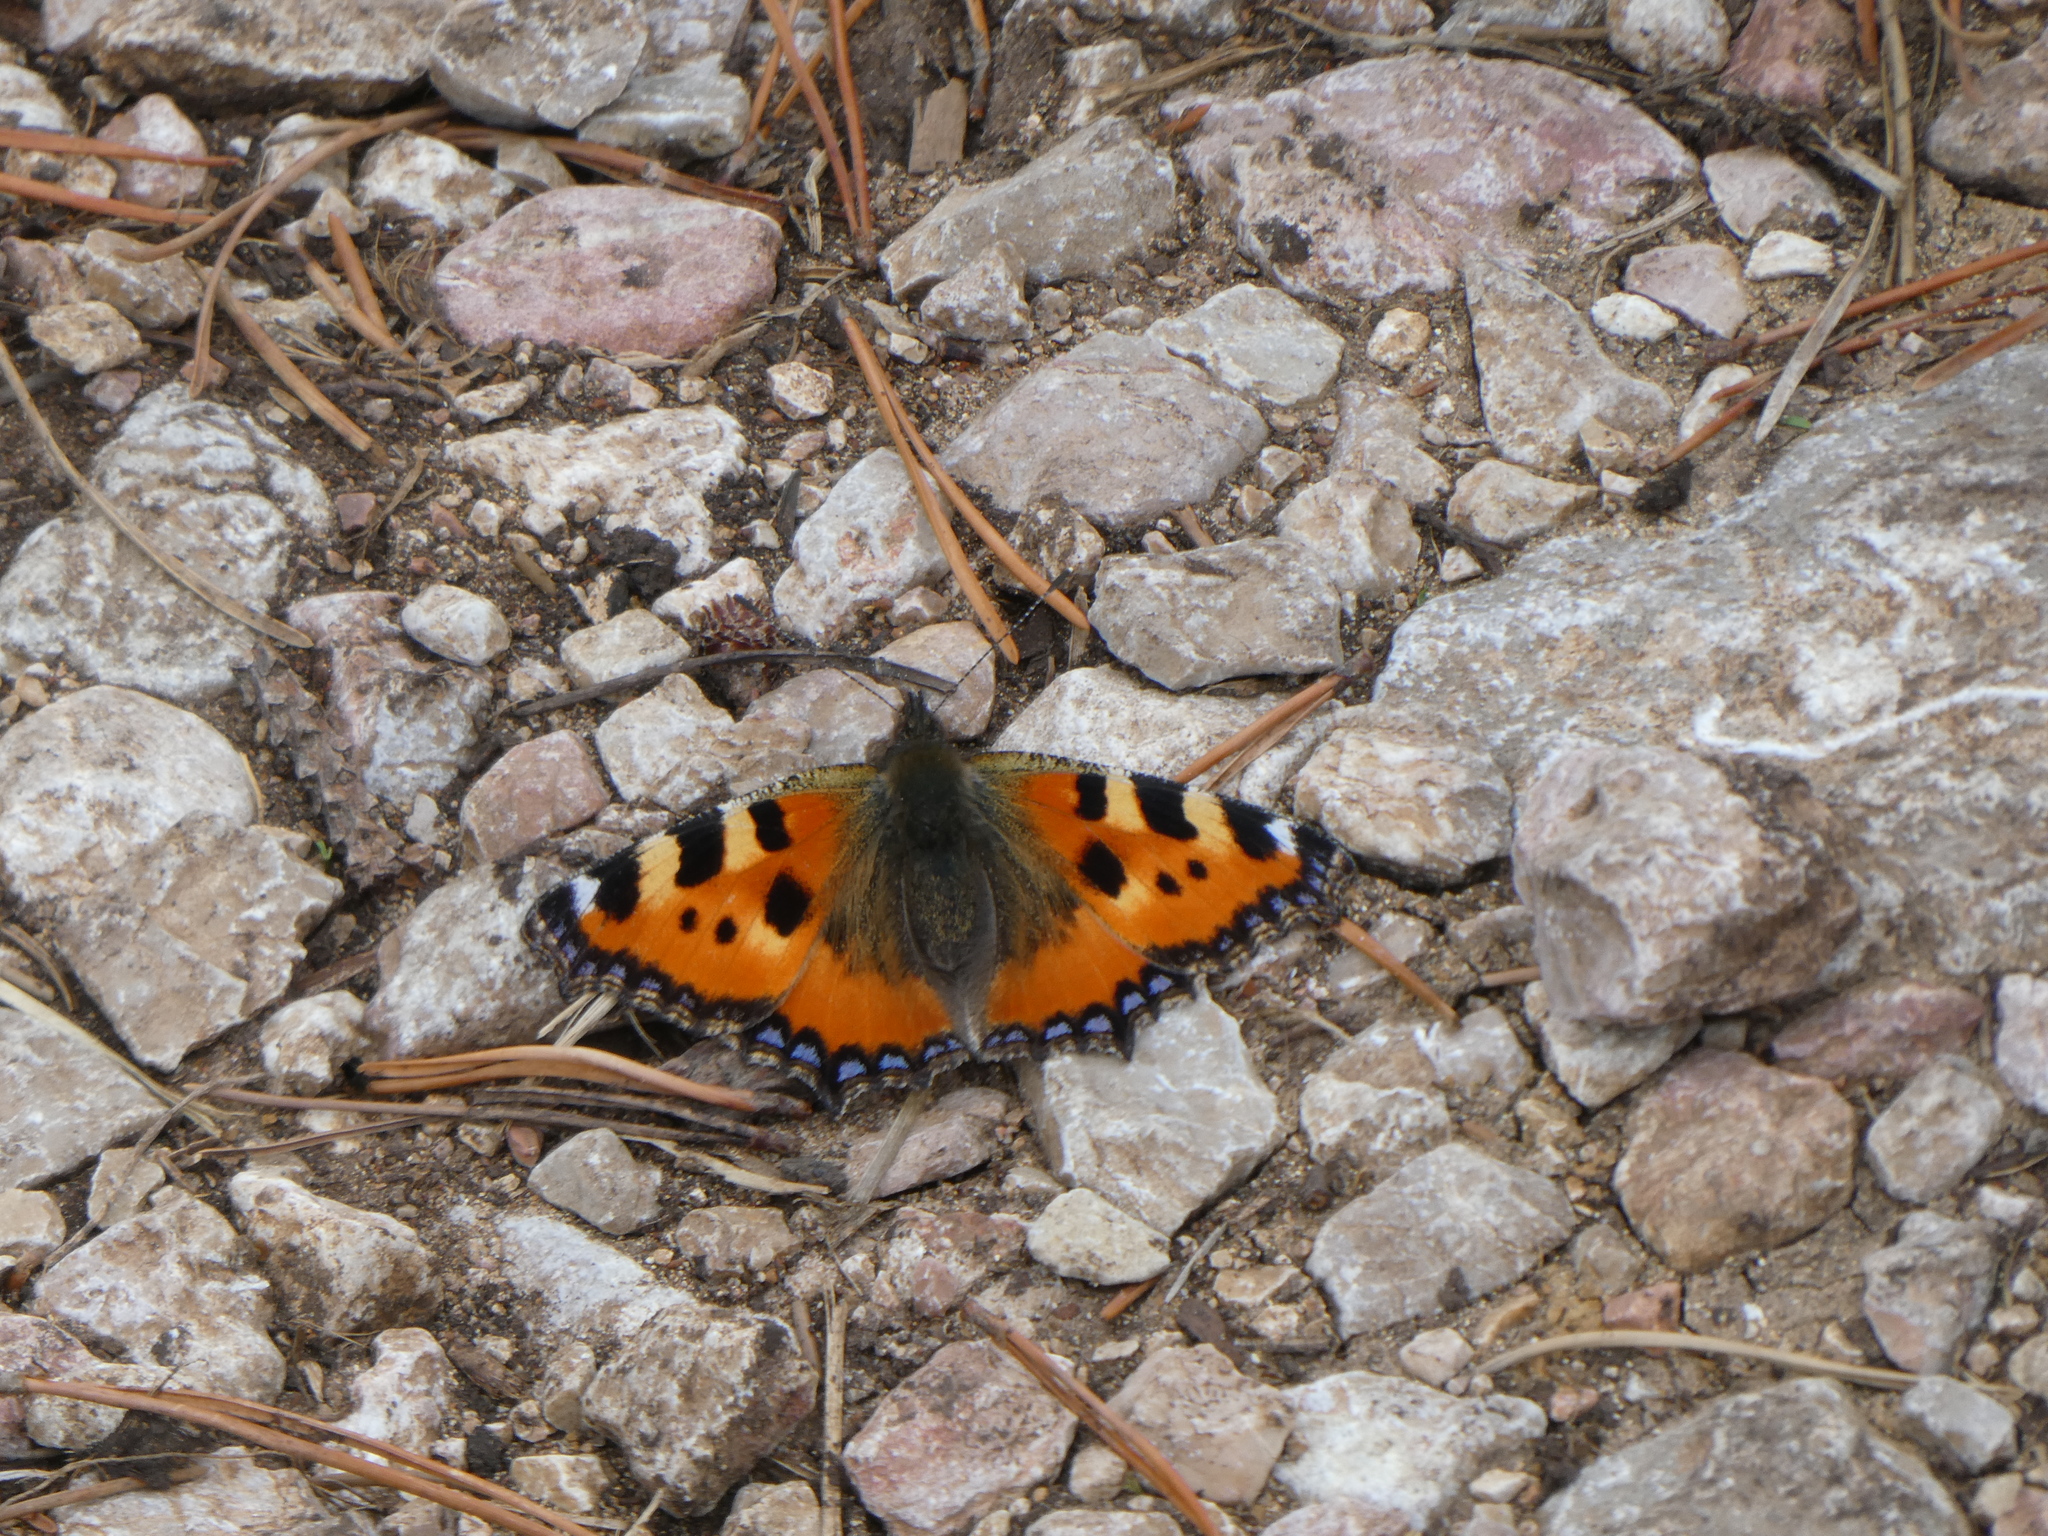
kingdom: Animalia
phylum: Arthropoda
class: Insecta
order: Lepidoptera
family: Nymphalidae
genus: Aglais
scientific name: Aglais urticae
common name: Small tortoiseshell
